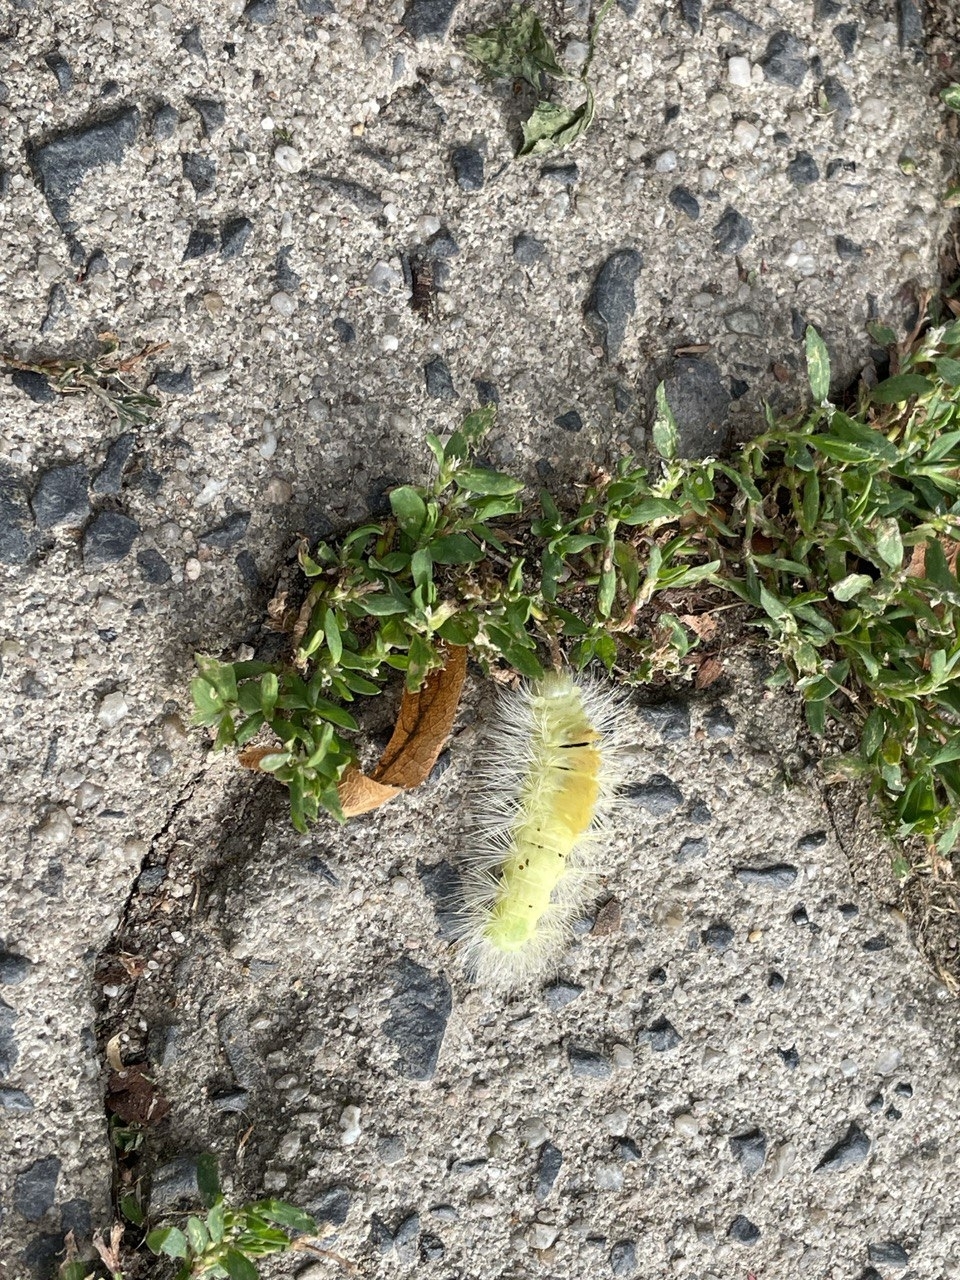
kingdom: Animalia
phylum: Arthropoda
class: Insecta
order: Lepidoptera
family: Erebidae
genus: Calliteara
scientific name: Calliteara pudibunda
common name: Pale tussock
